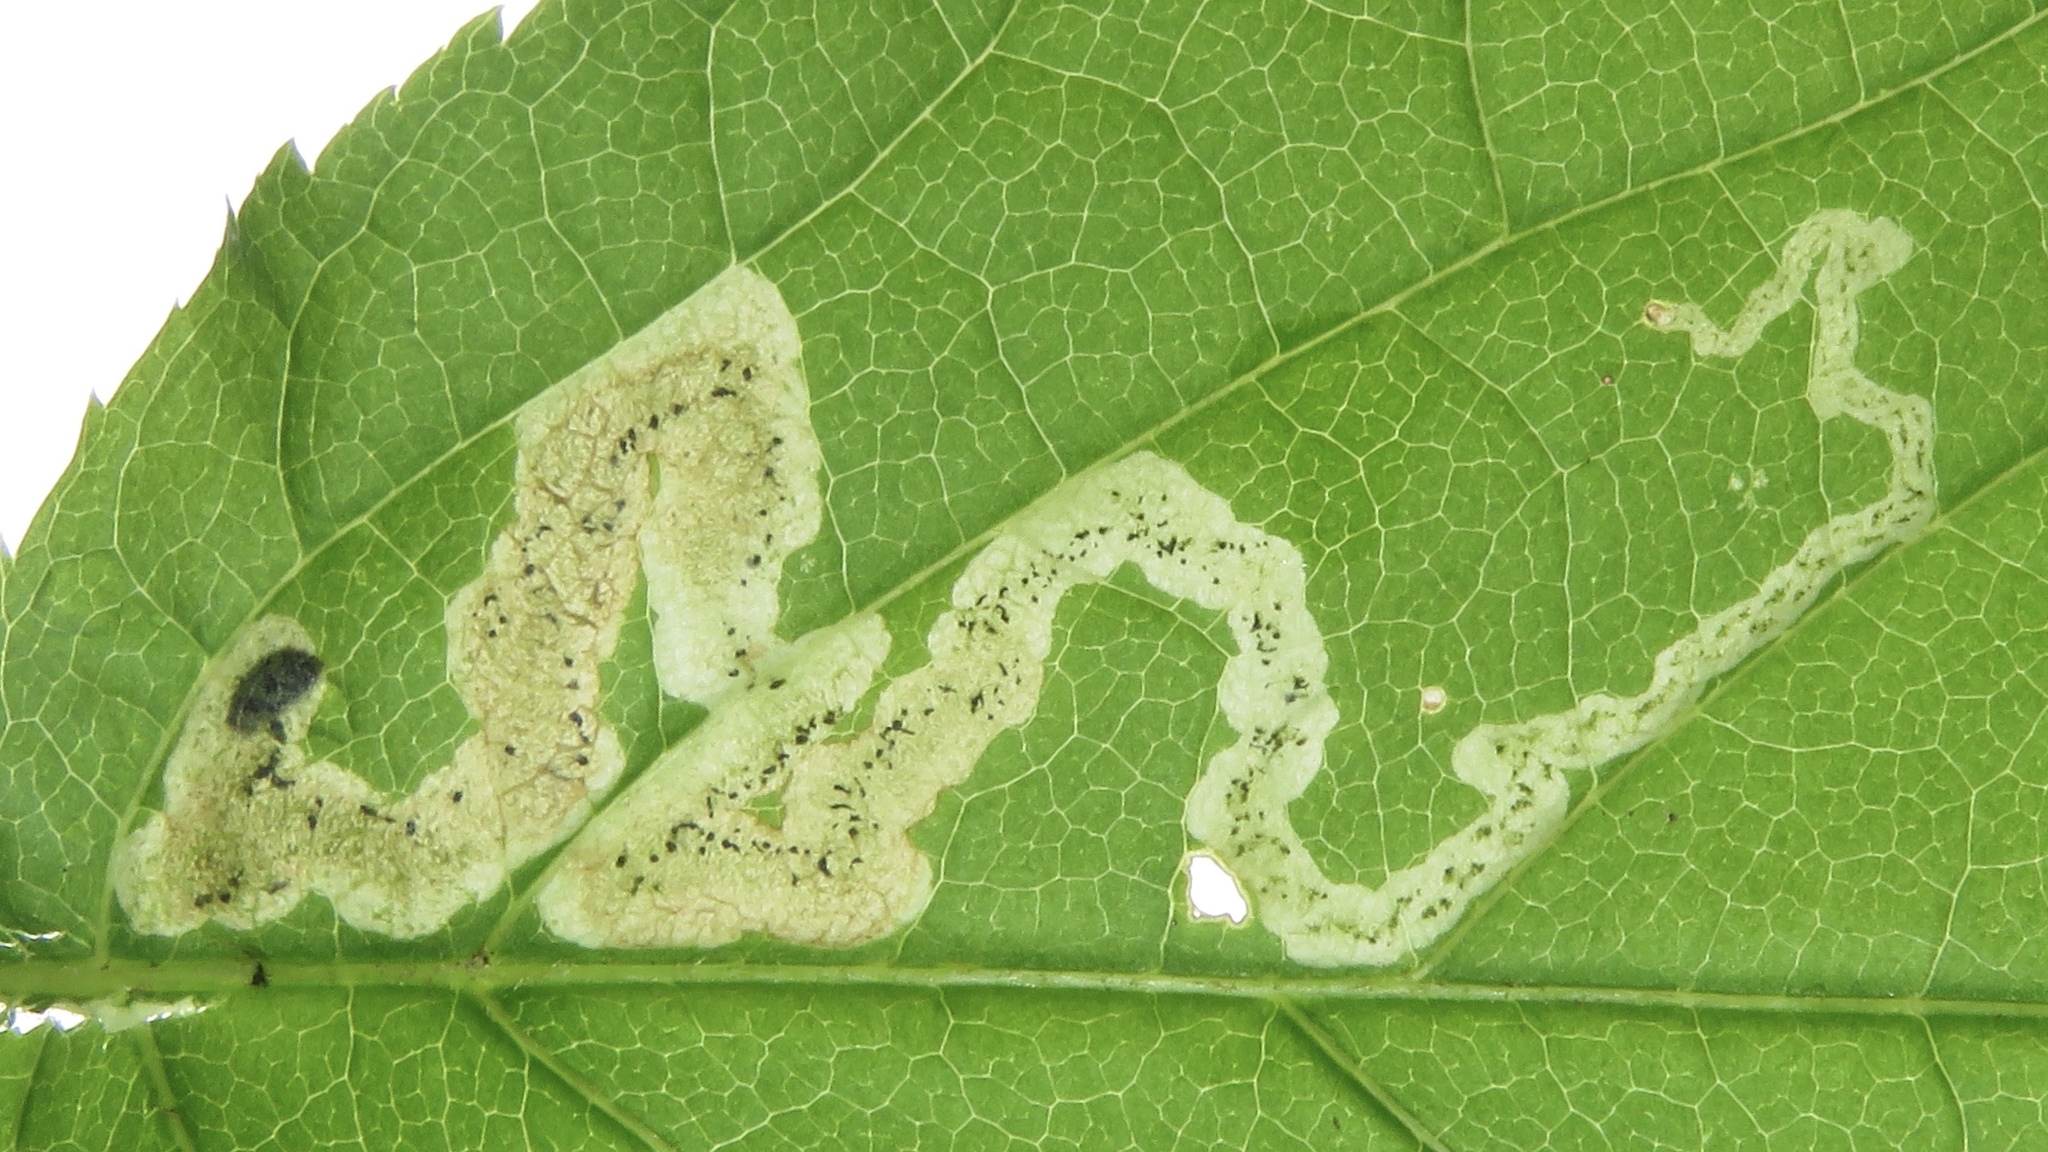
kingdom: Animalia
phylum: Arthropoda
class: Insecta
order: Diptera
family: Agromyzidae
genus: Phytomyza
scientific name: Phytomyza aralivora
